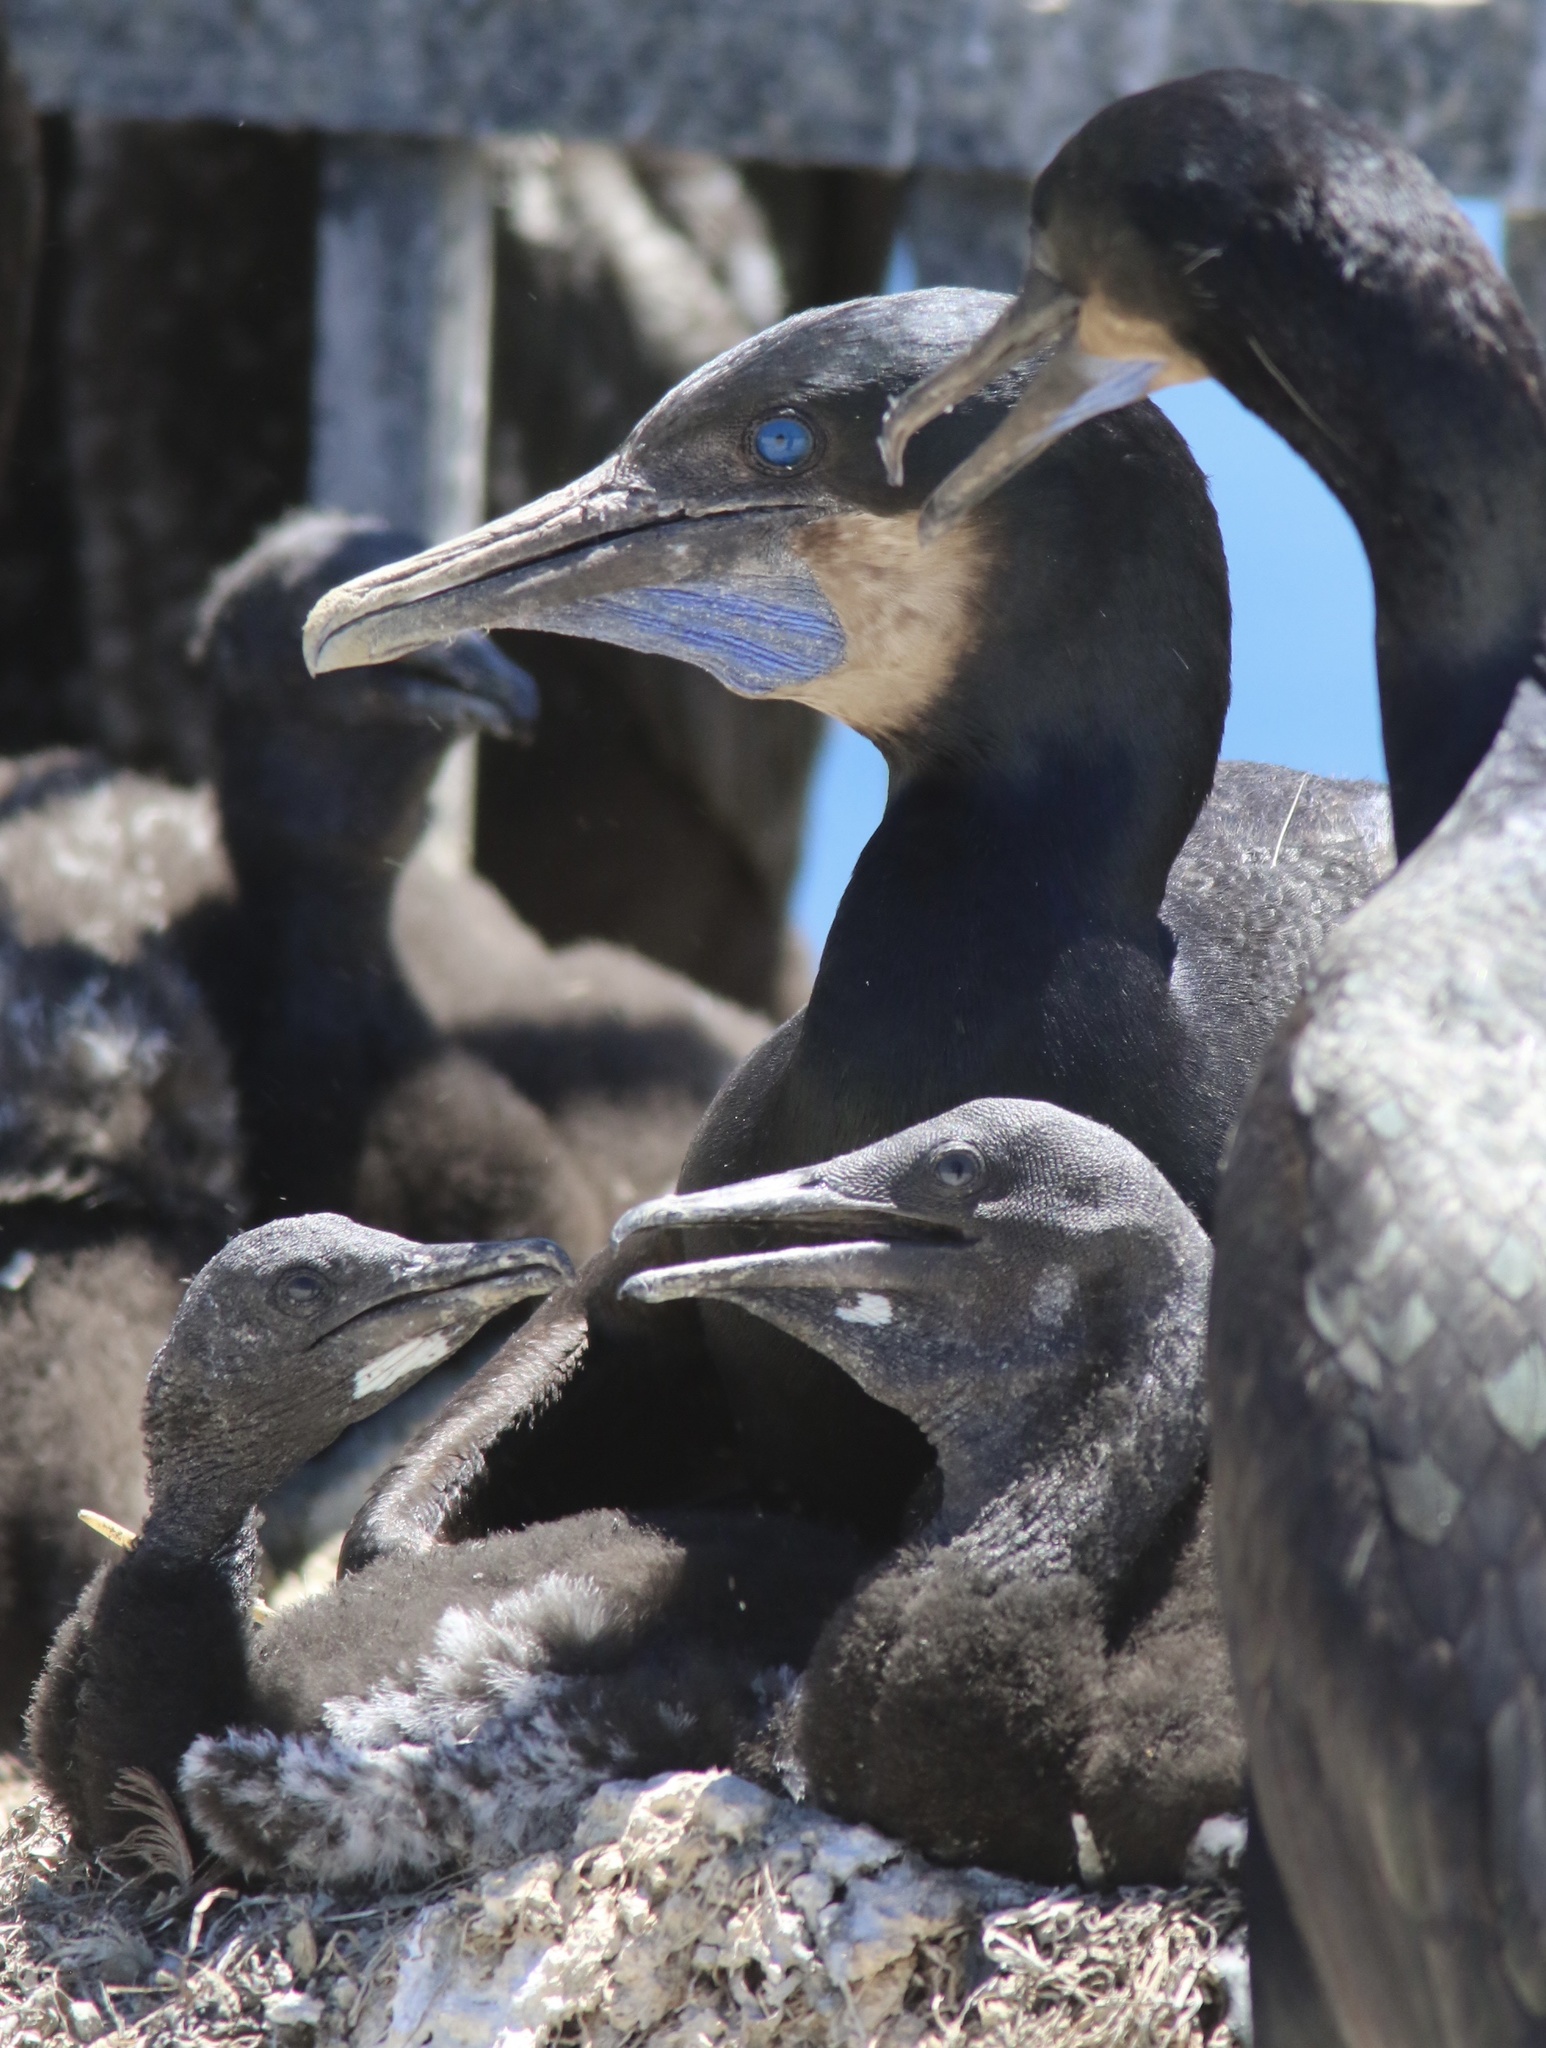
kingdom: Animalia
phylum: Chordata
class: Aves
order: Suliformes
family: Phalacrocoracidae
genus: Urile
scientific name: Urile penicillatus
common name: Brandt's cormorant
